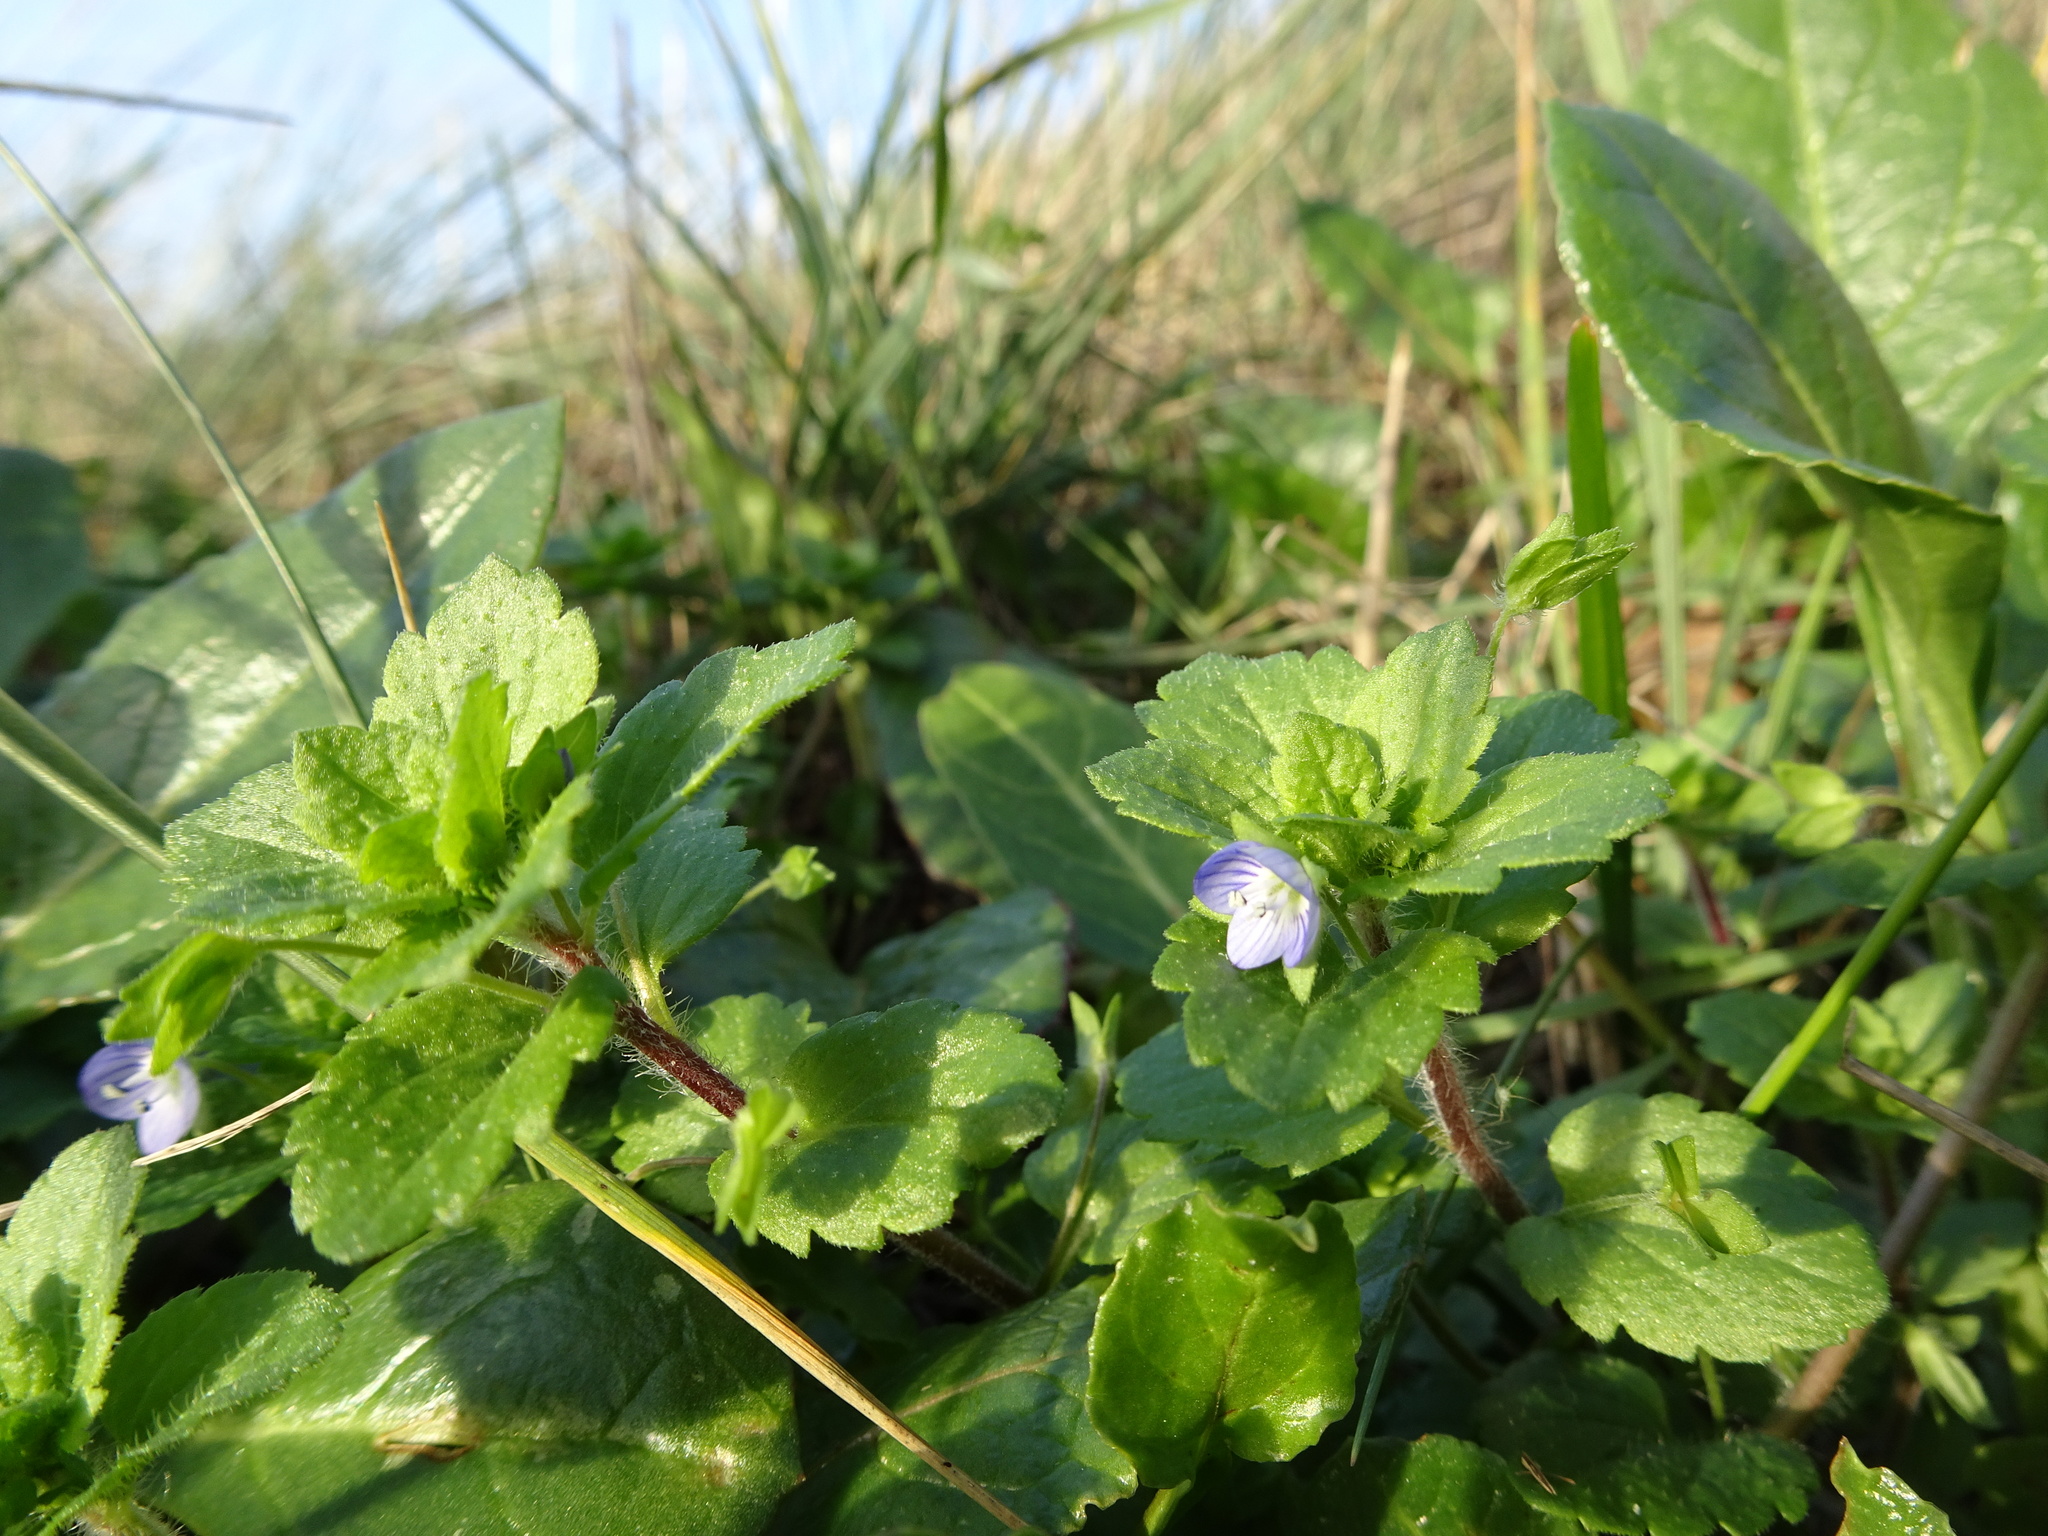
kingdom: Plantae
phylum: Tracheophyta
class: Magnoliopsida
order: Lamiales
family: Plantaginaceae
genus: Veronica
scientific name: Veronica persica
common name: Common field-speedwell
